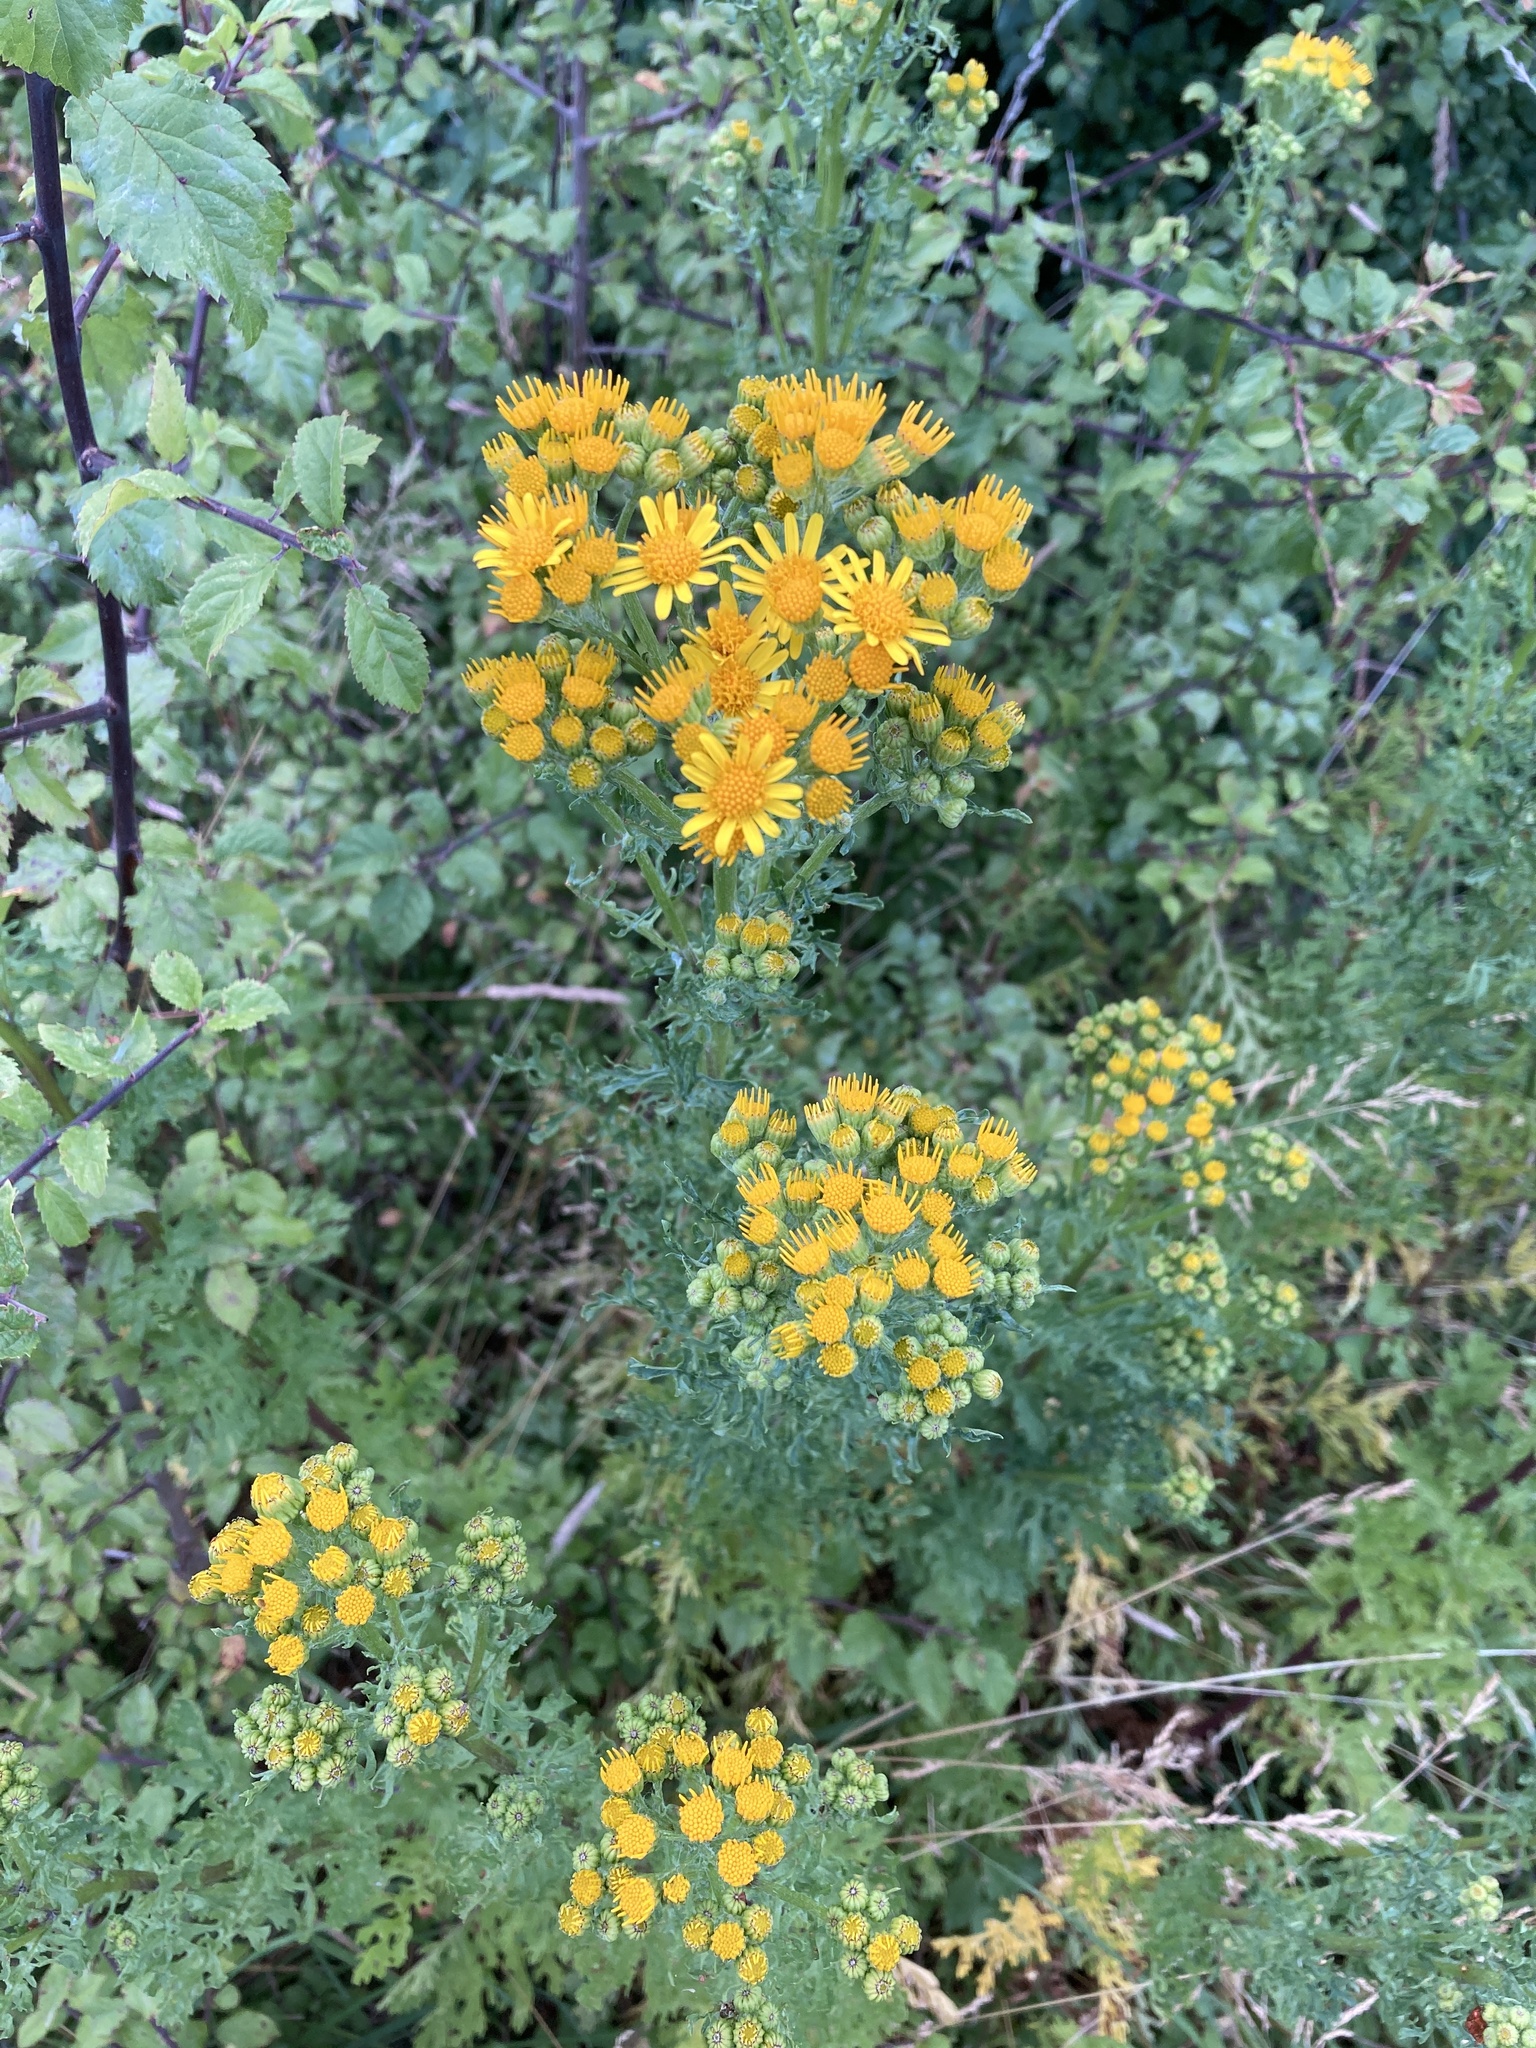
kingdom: Plantae
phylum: Tracheophyta
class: Magnoliopsida
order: Asterales
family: Asteraceae
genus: Jacobaea
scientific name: Jacobaea vulgaris
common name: Stinking willie
